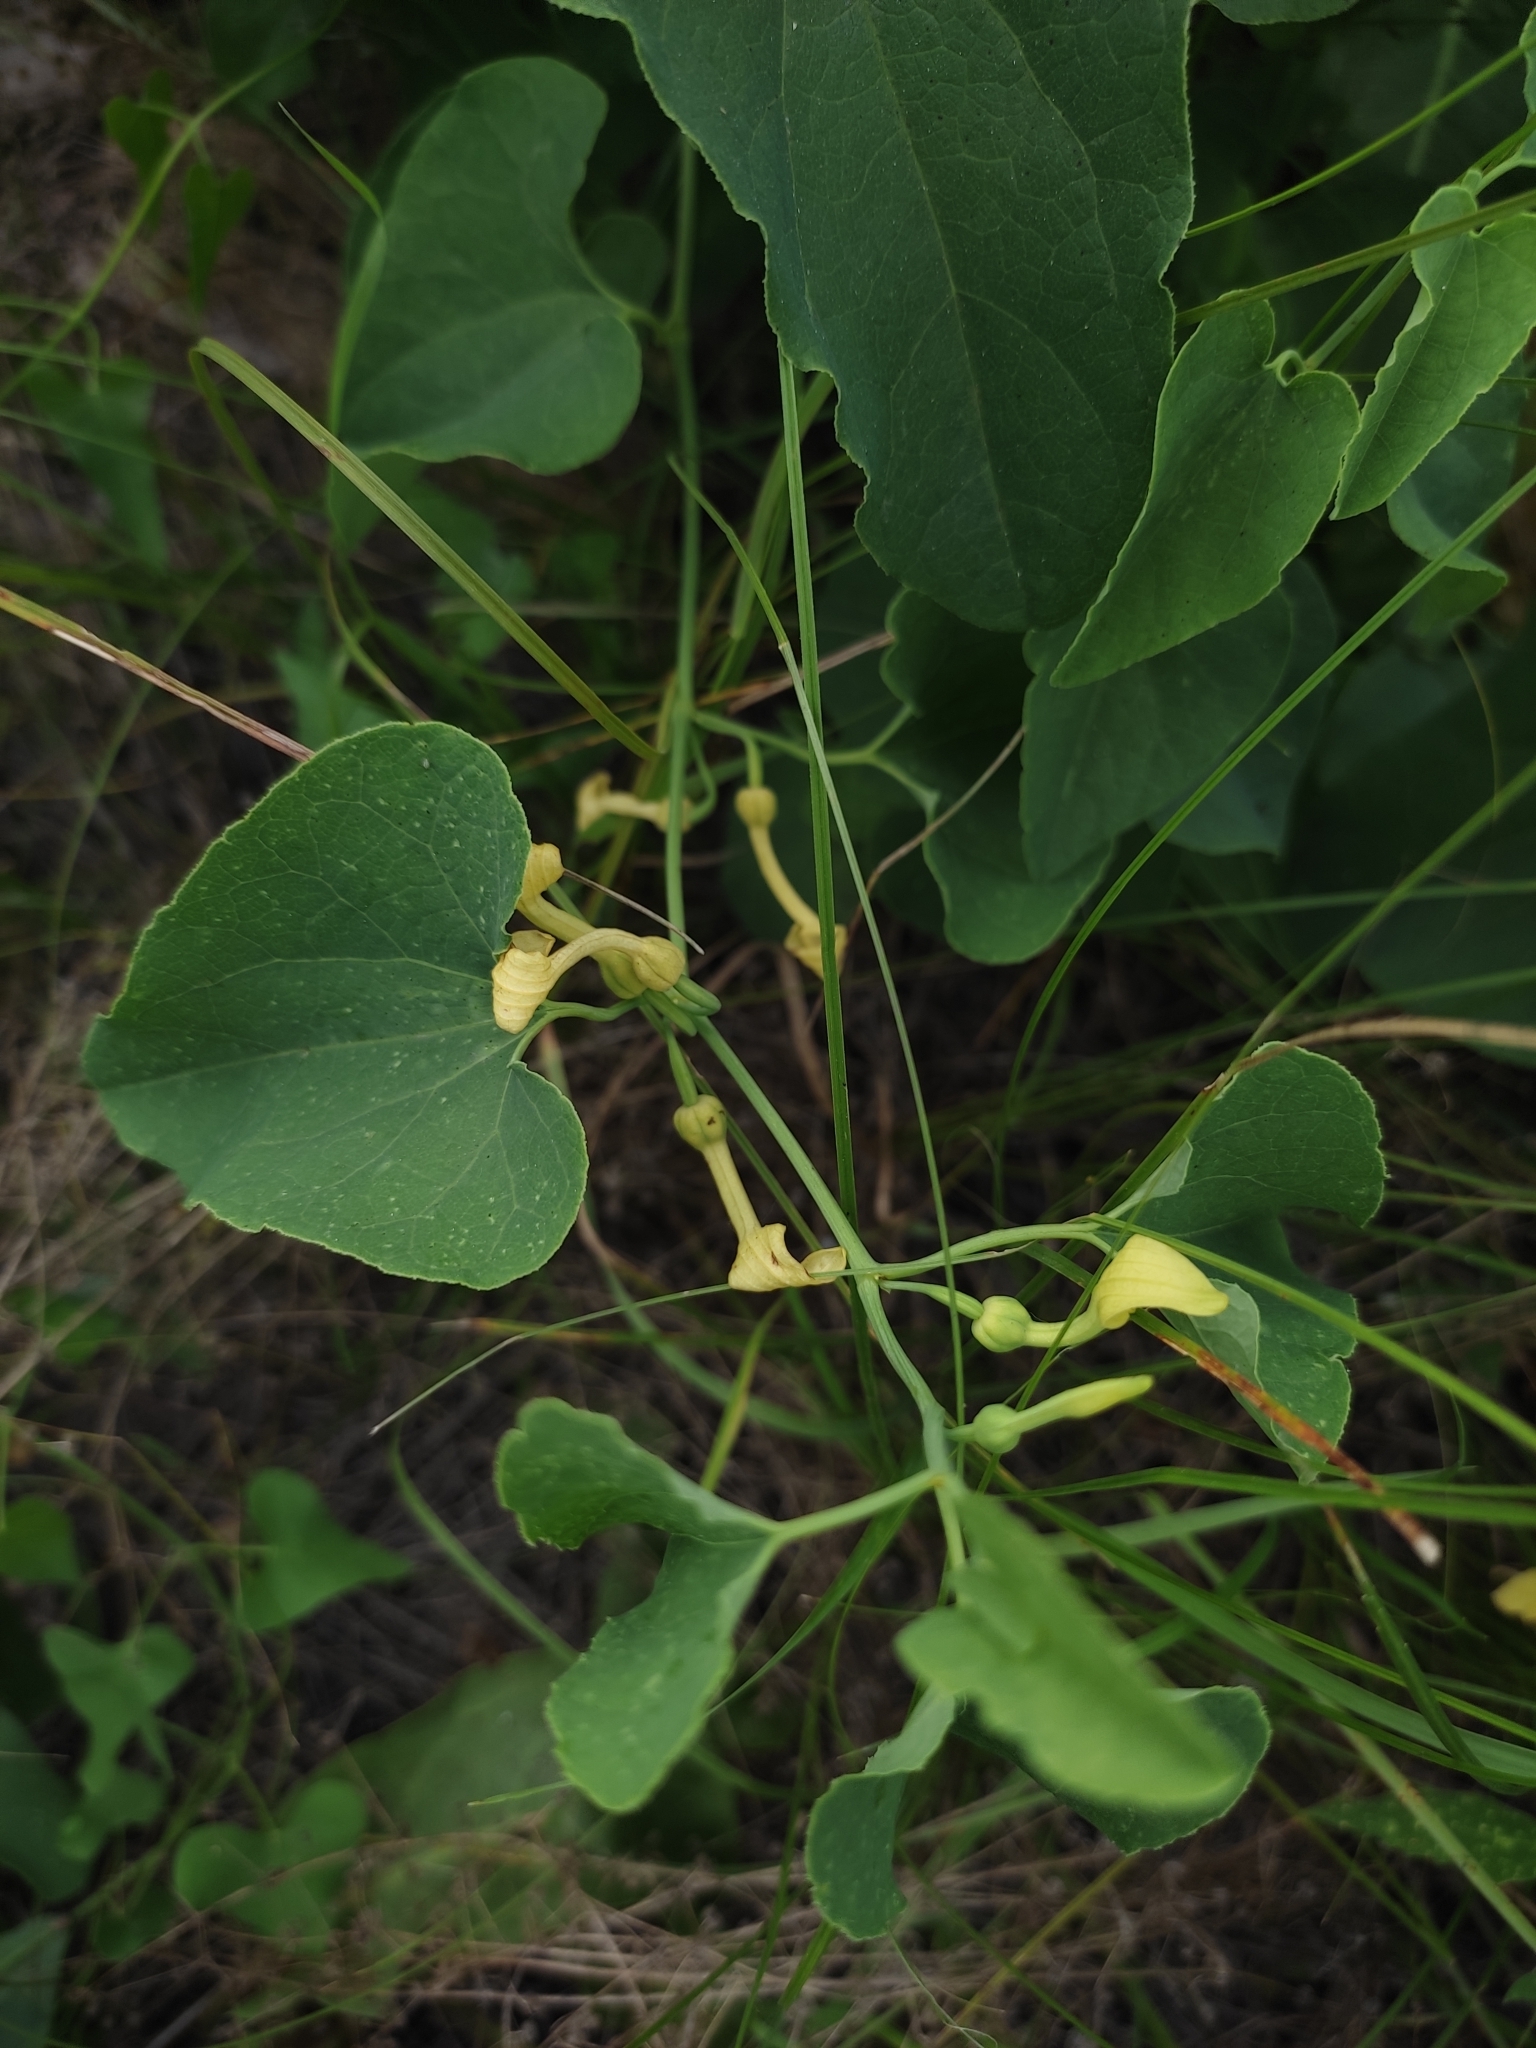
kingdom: Plantae
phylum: Tracheophyta
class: Magnoliopsida
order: Piperales
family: Aristolochiaceae
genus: Aristolochia
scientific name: Aristolochia clematitis
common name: Birthwort
